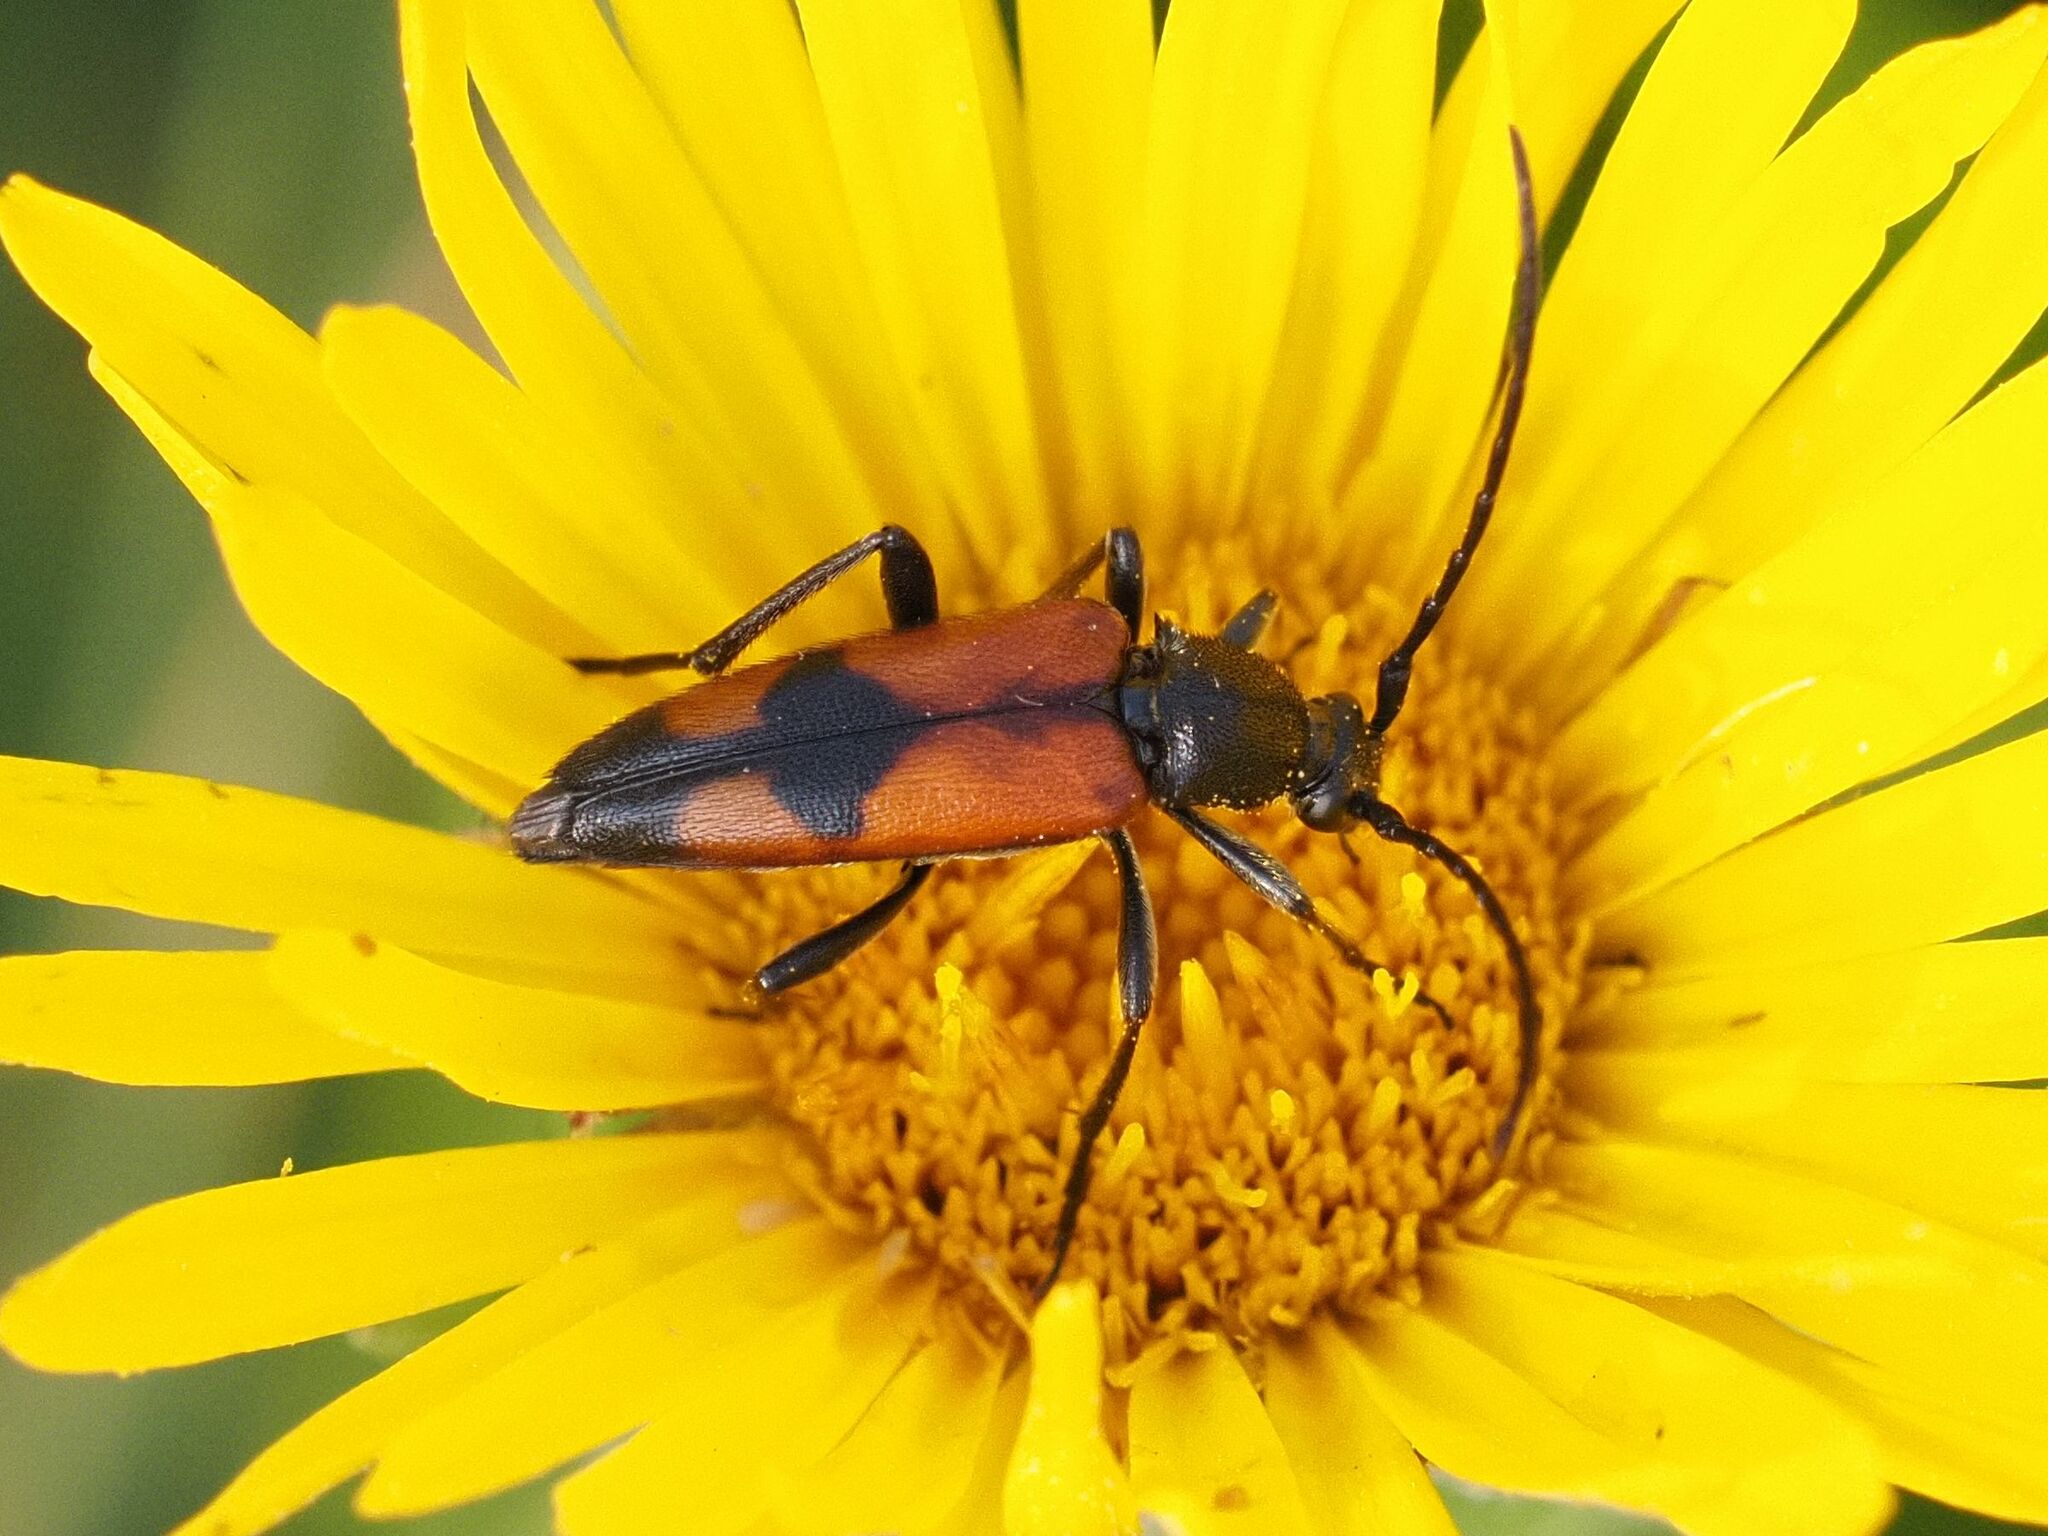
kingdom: Animalia
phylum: Arthropoda
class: Insecta
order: Coleoptera
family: Cerambycidae
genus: Stenurella
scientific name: Stenurella bifasciata
